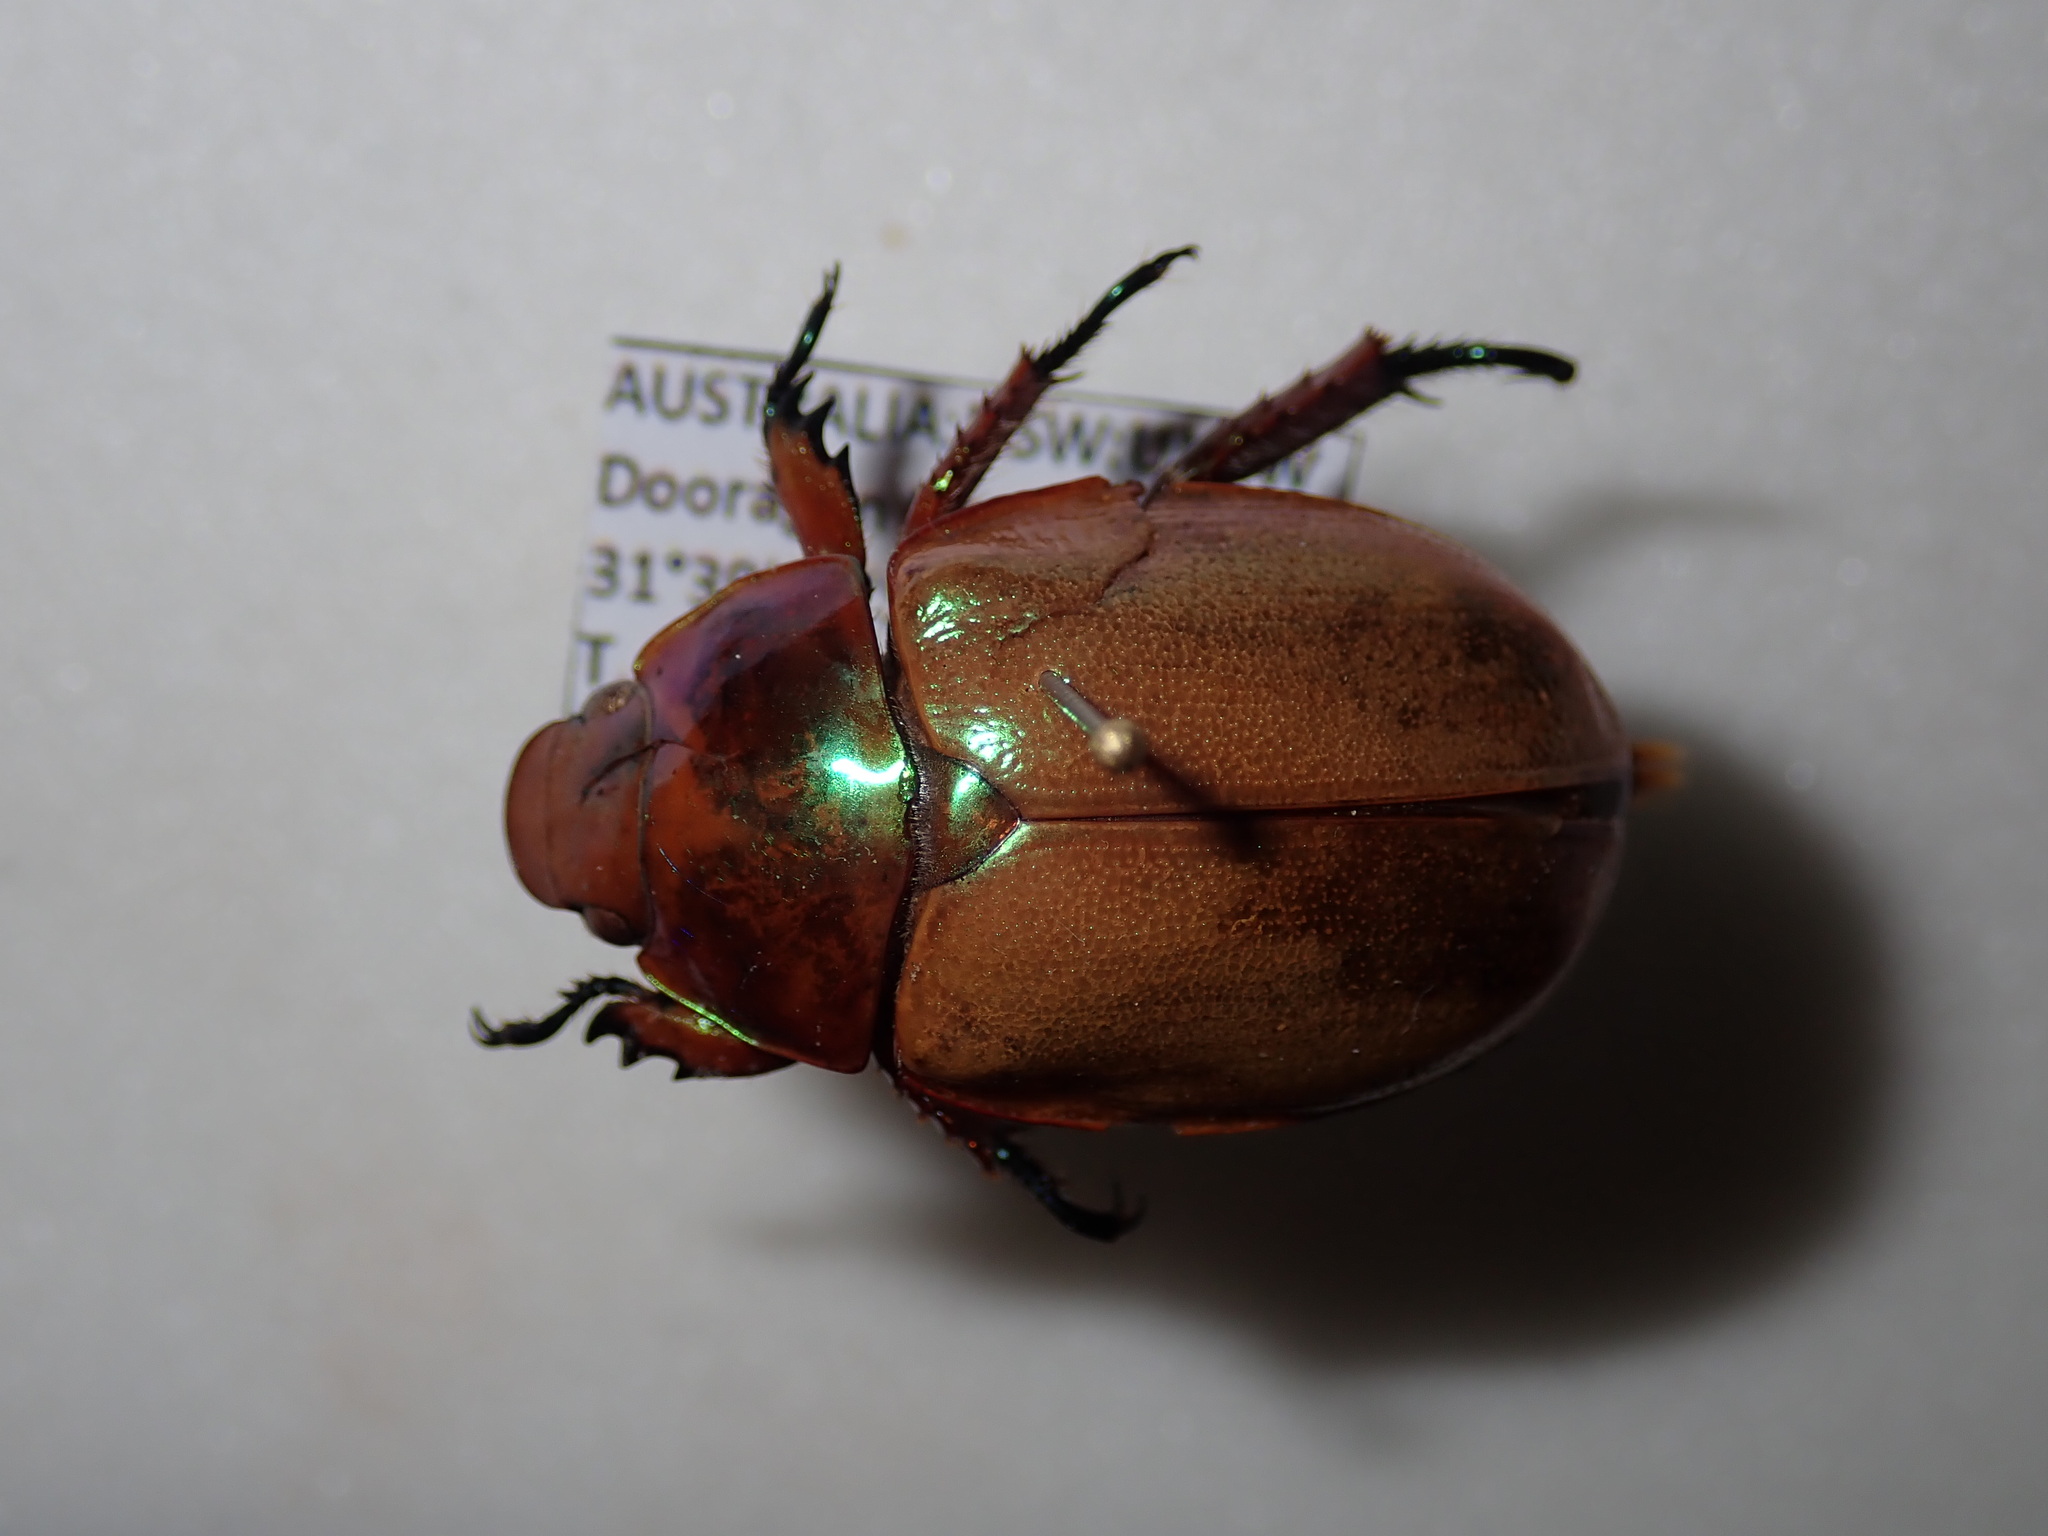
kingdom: Animalia
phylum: Arthropoda
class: Insecta
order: Coleoptera
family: Scarabaeidae
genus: Anoplognathus
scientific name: Anoplognathus viriditarsis
